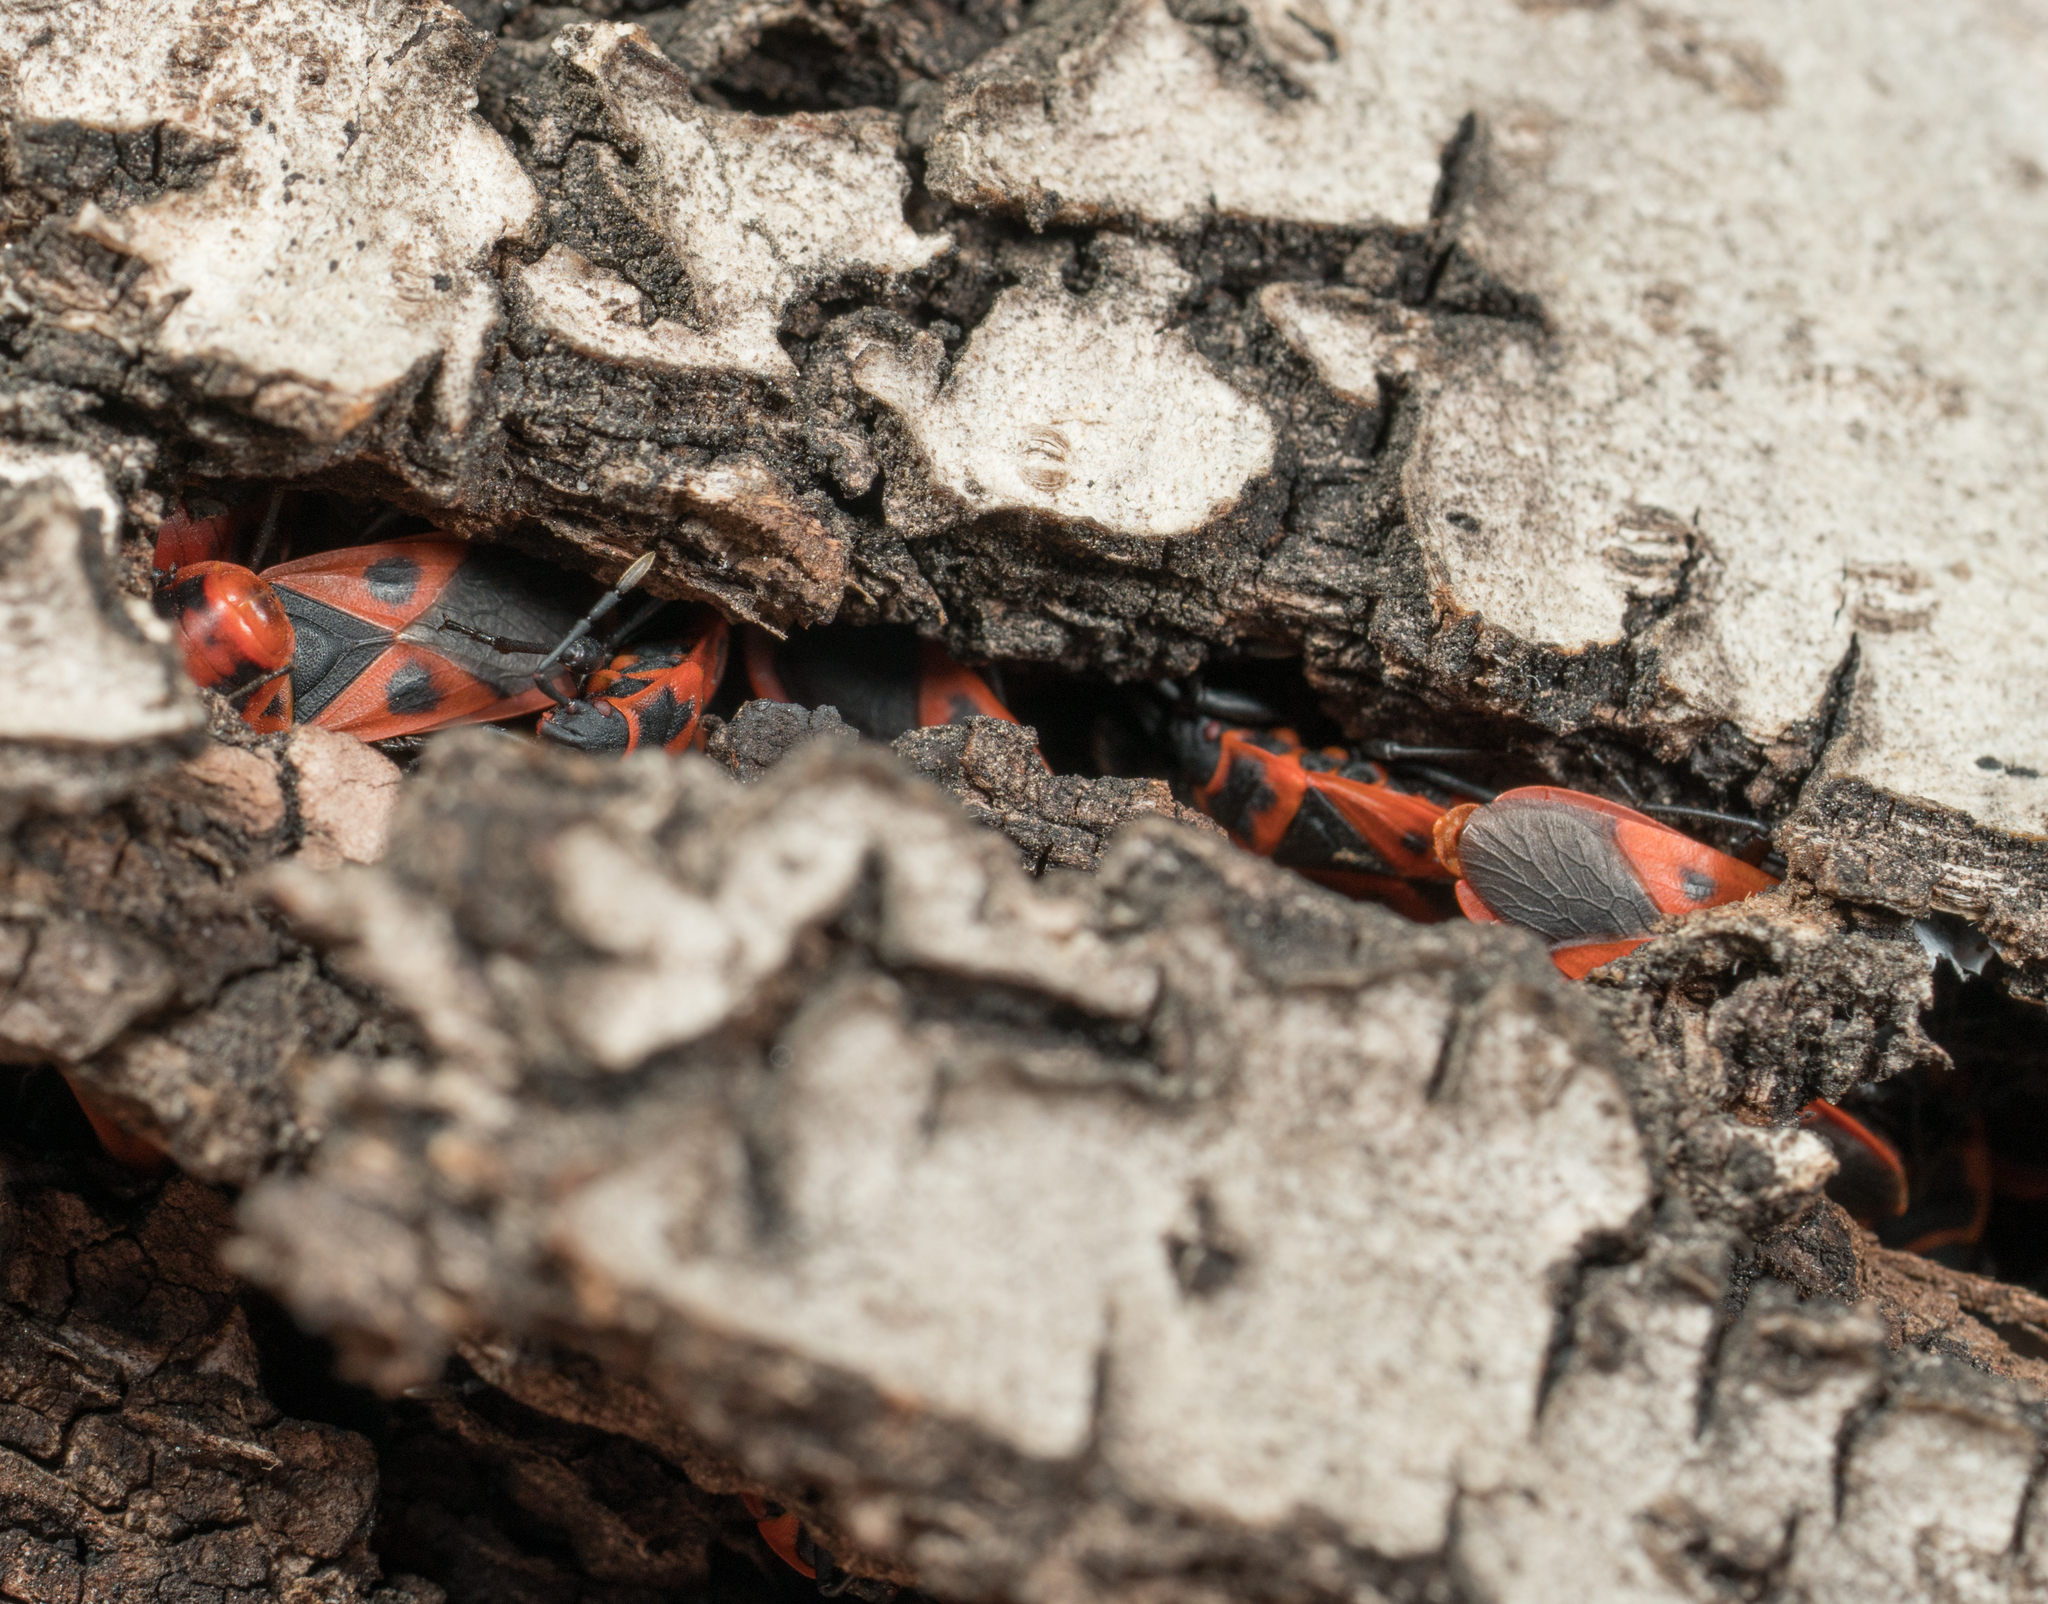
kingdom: Animalia
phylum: Arthropoda
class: Insecta
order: Hemiptera
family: Pyrrhocoridae
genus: Scantius
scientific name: Scantius aegyptius
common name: Red bug
